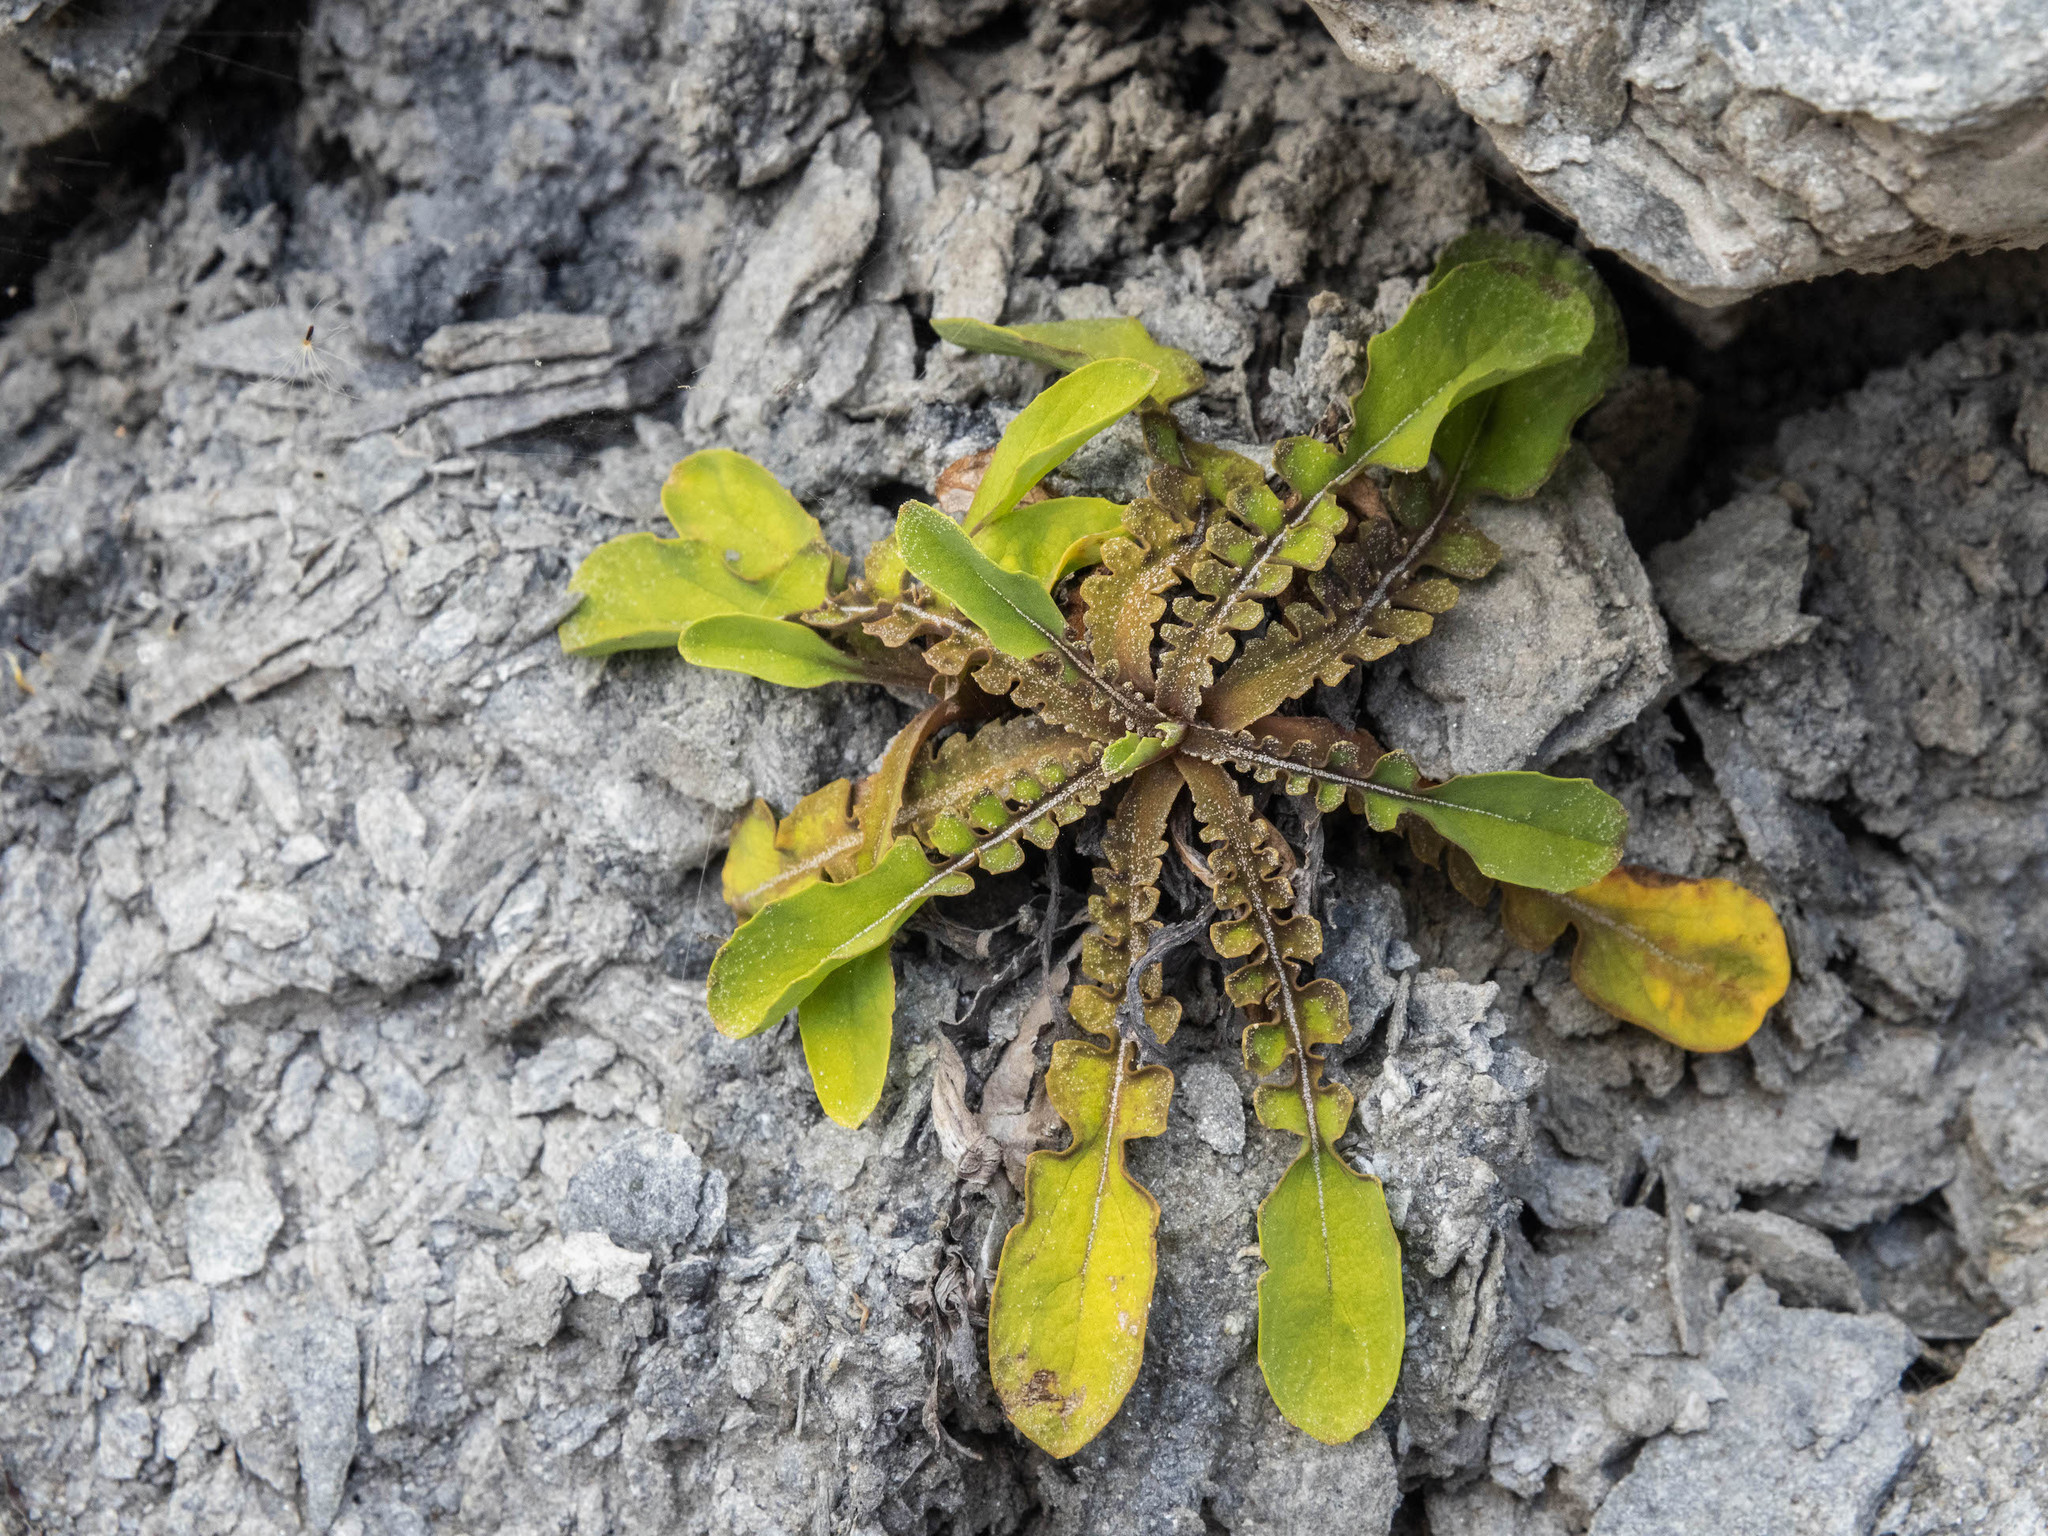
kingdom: Plantae
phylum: Tracheophyta
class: Magnoliopsida
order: Asterales
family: Asteraceae
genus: Sonchus
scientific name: Sonchus novae-zelandiae
